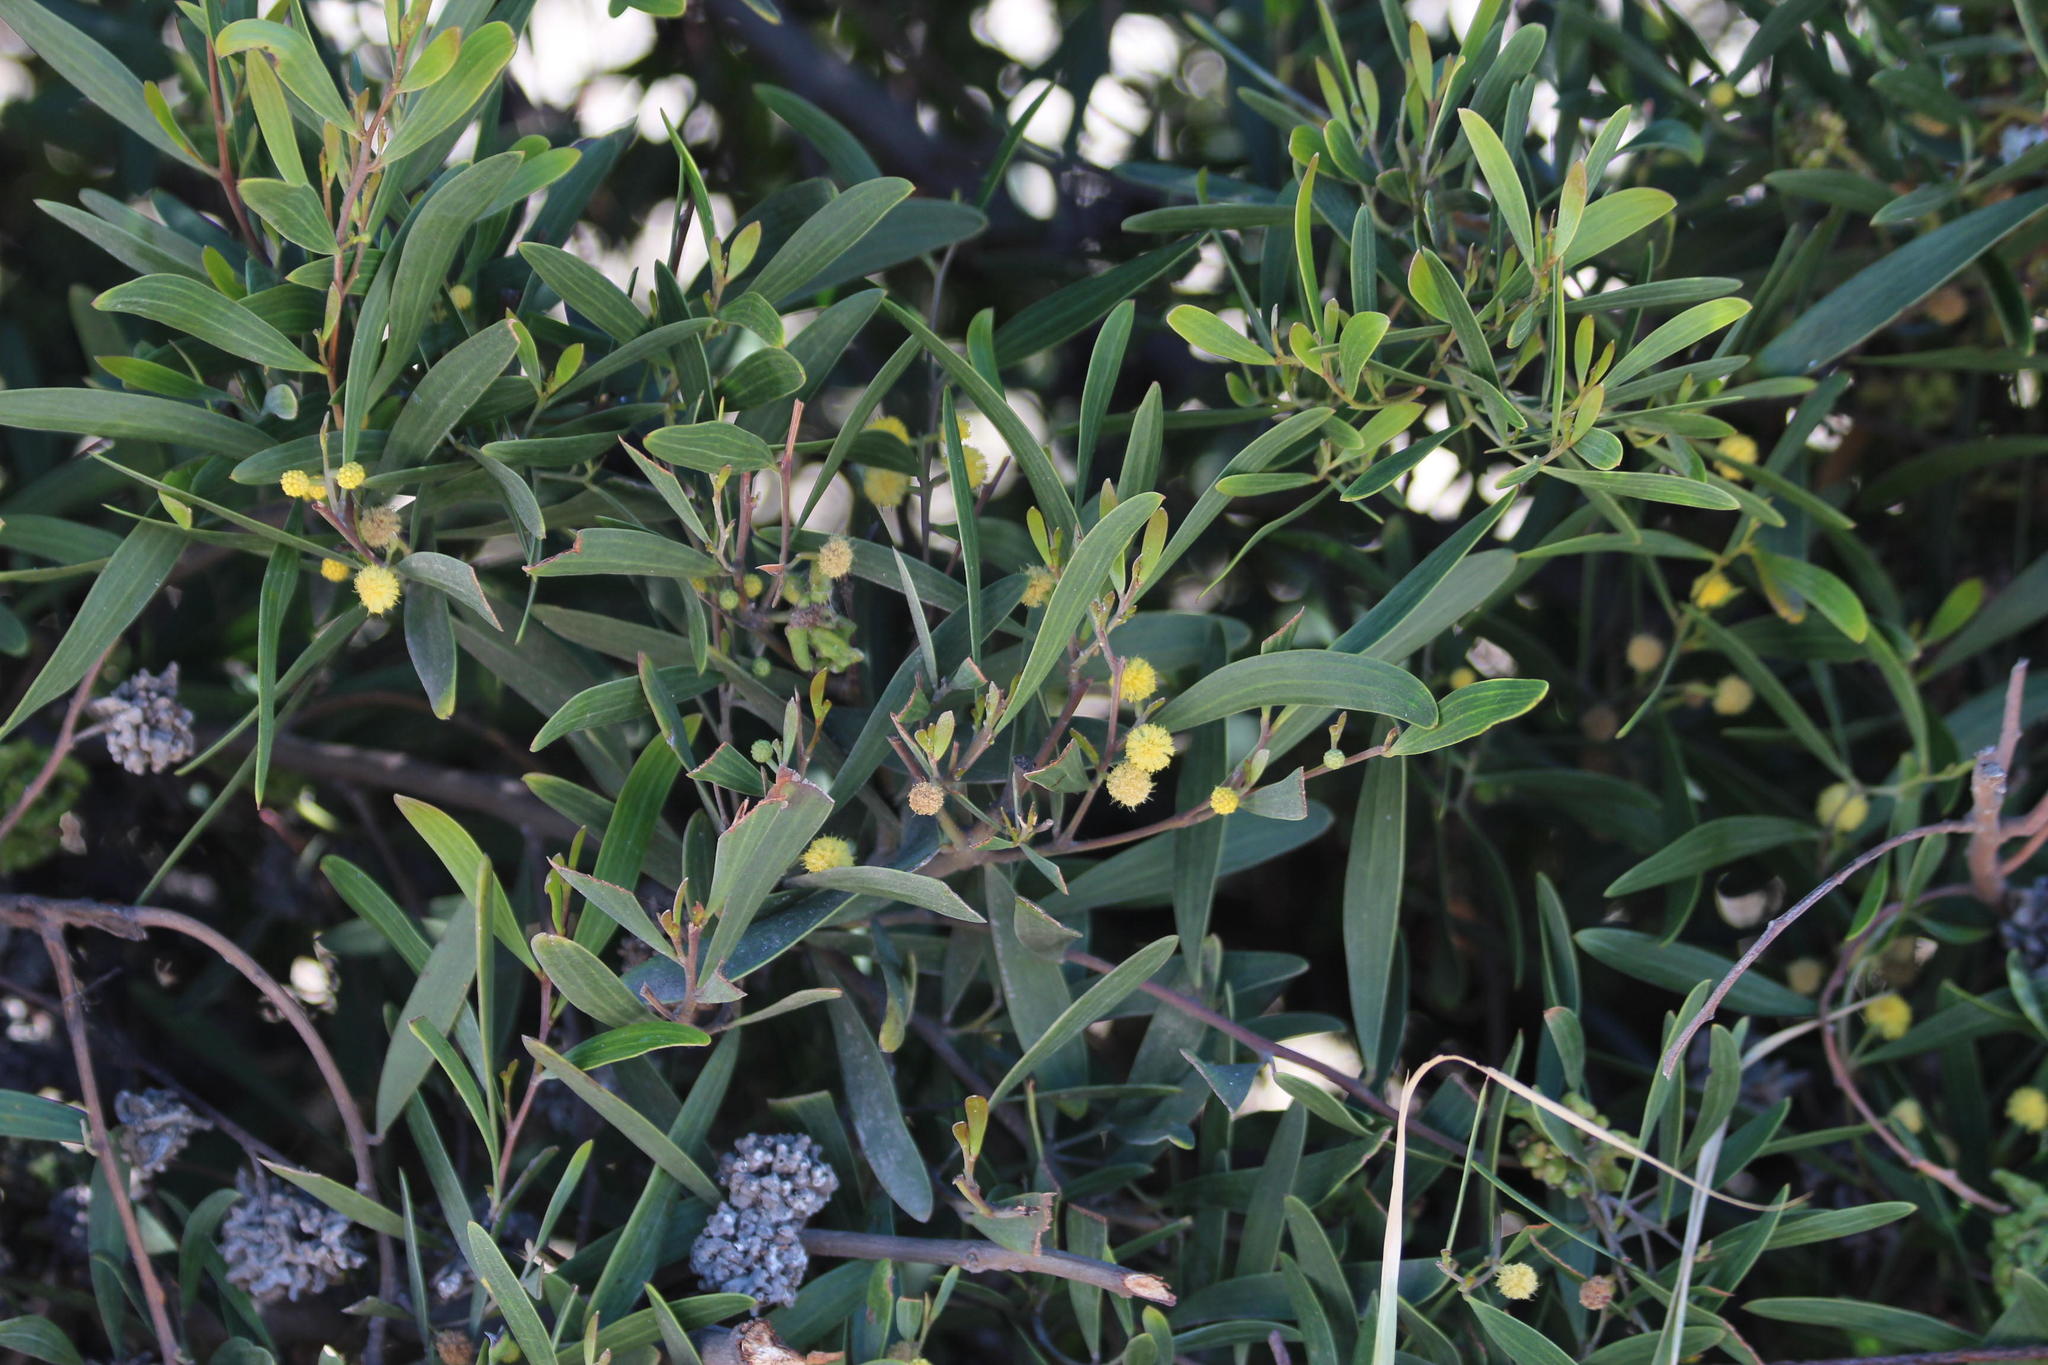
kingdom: Animalia
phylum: Arthropoda
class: Insecta
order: Diptera
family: Cecidomyiidae
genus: Dasineura
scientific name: Dasineura dielsi
